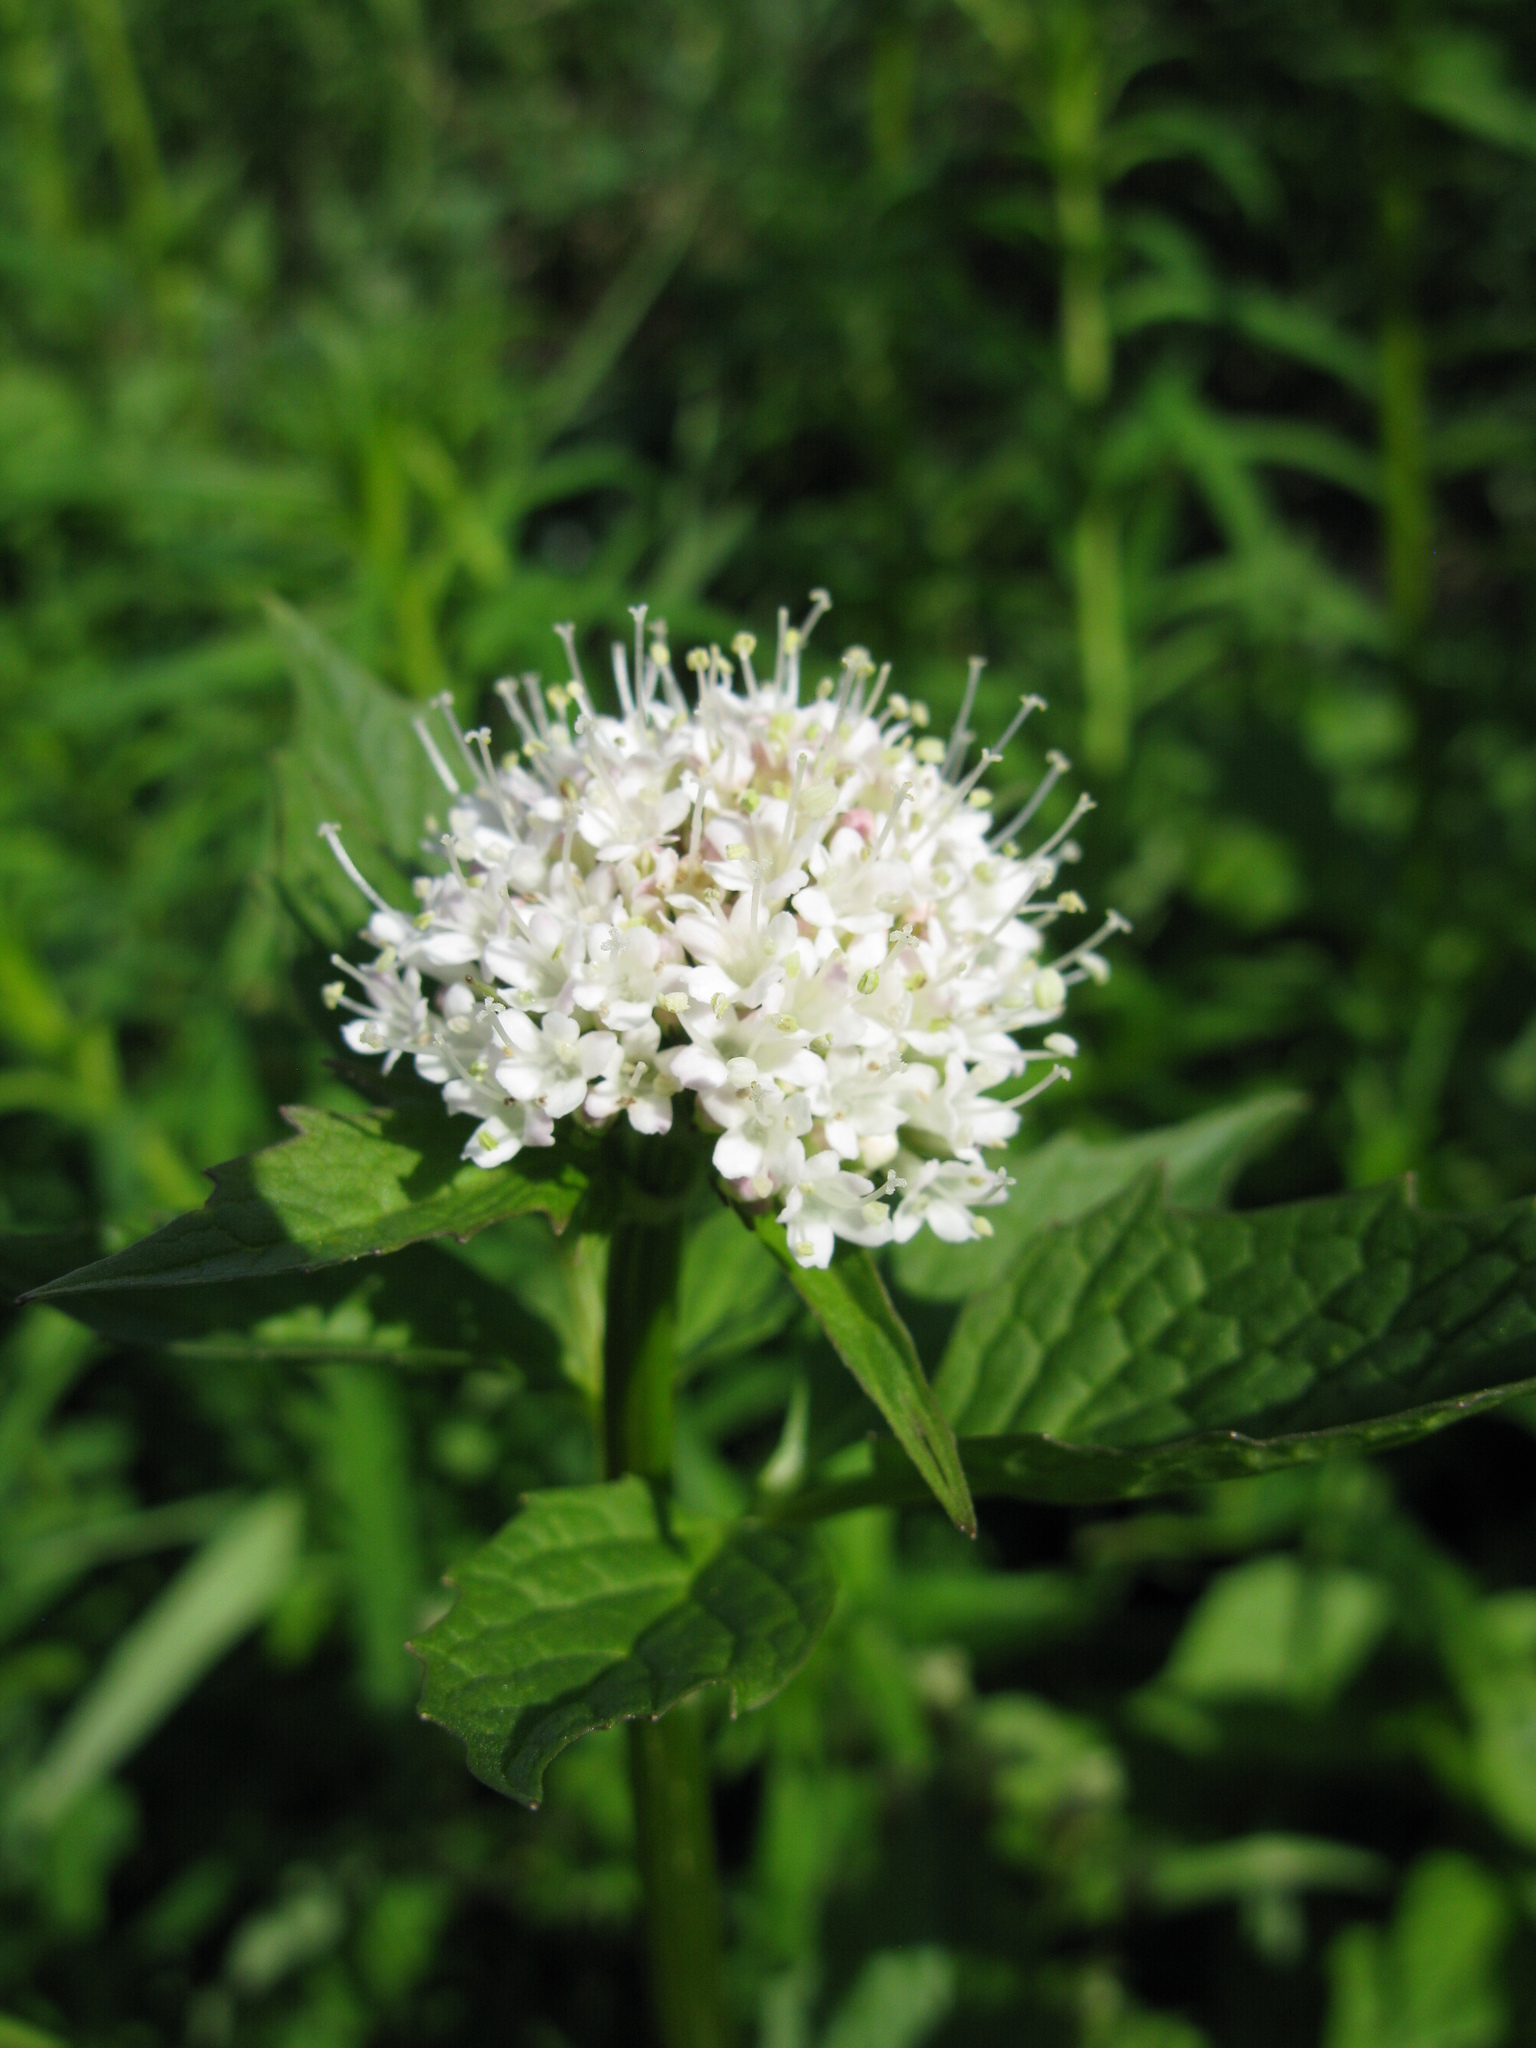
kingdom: Plantae
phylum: Tracheophyta
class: Magnoliopsida
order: Dipsacales
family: Caprifoliaceae
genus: Valeriana
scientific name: Valeriana sitchensis
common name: Pacific valerian
